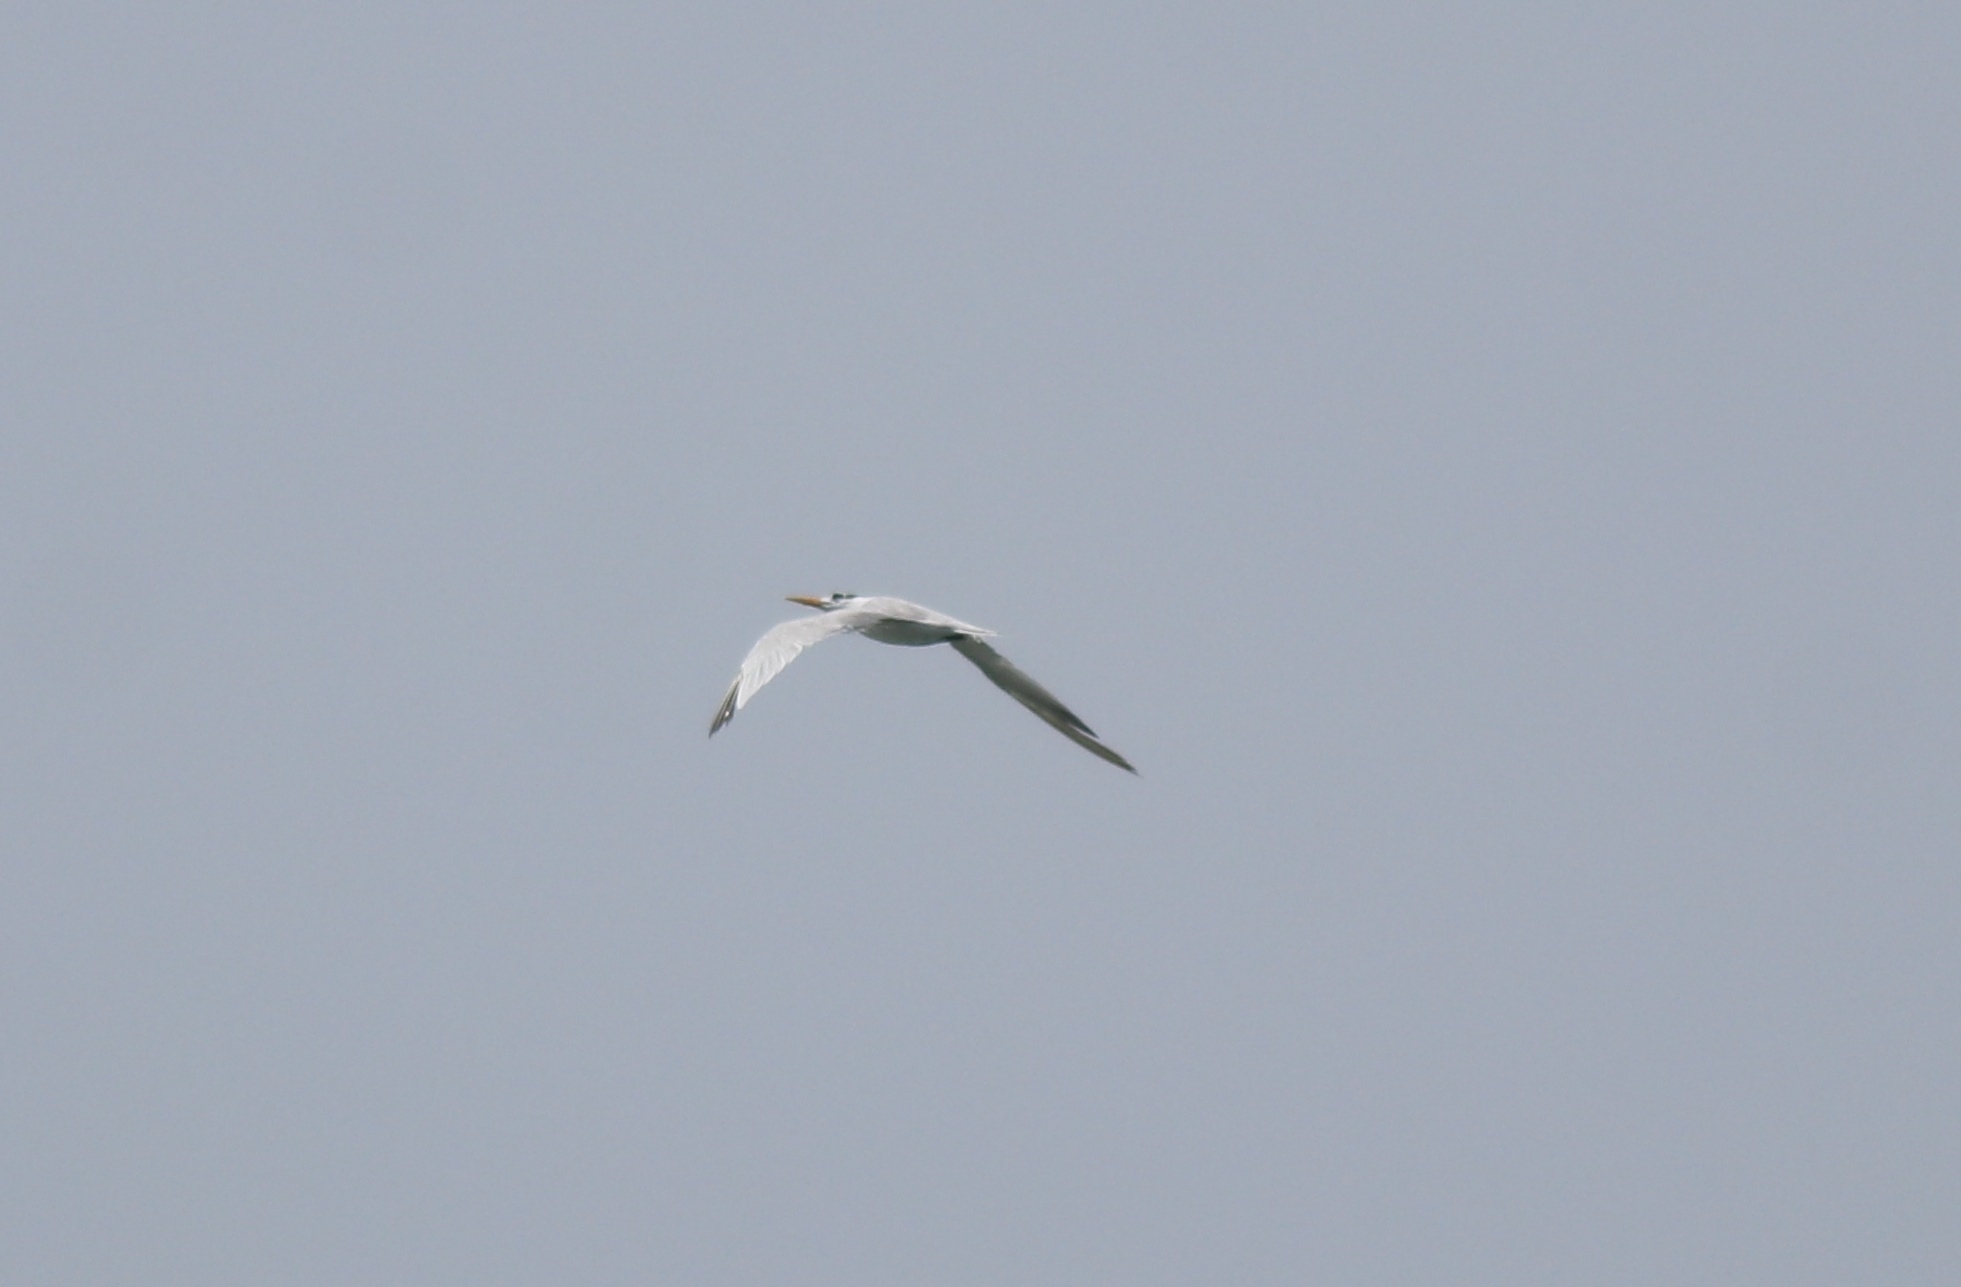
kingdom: Animalia
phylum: Chordata
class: Aves
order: Charadriiformes
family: Laridae
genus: Thalasseus
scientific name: Thalasseus bengalensis
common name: Lesser crested tern
